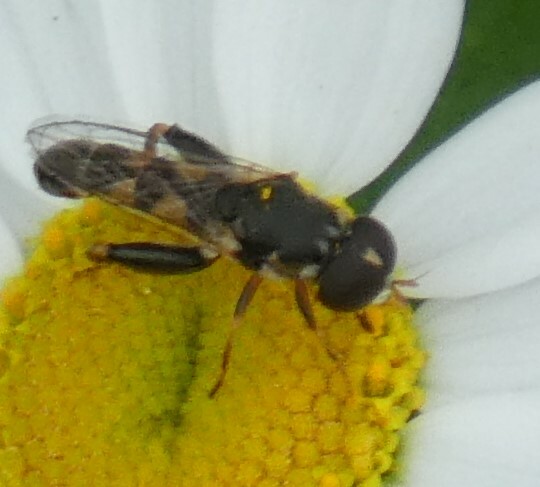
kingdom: Animalia
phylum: Arthropoda
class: Insecta
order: Diptera
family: Syrphidae
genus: Syritta
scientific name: Syritta pipiens
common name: Hover fly
